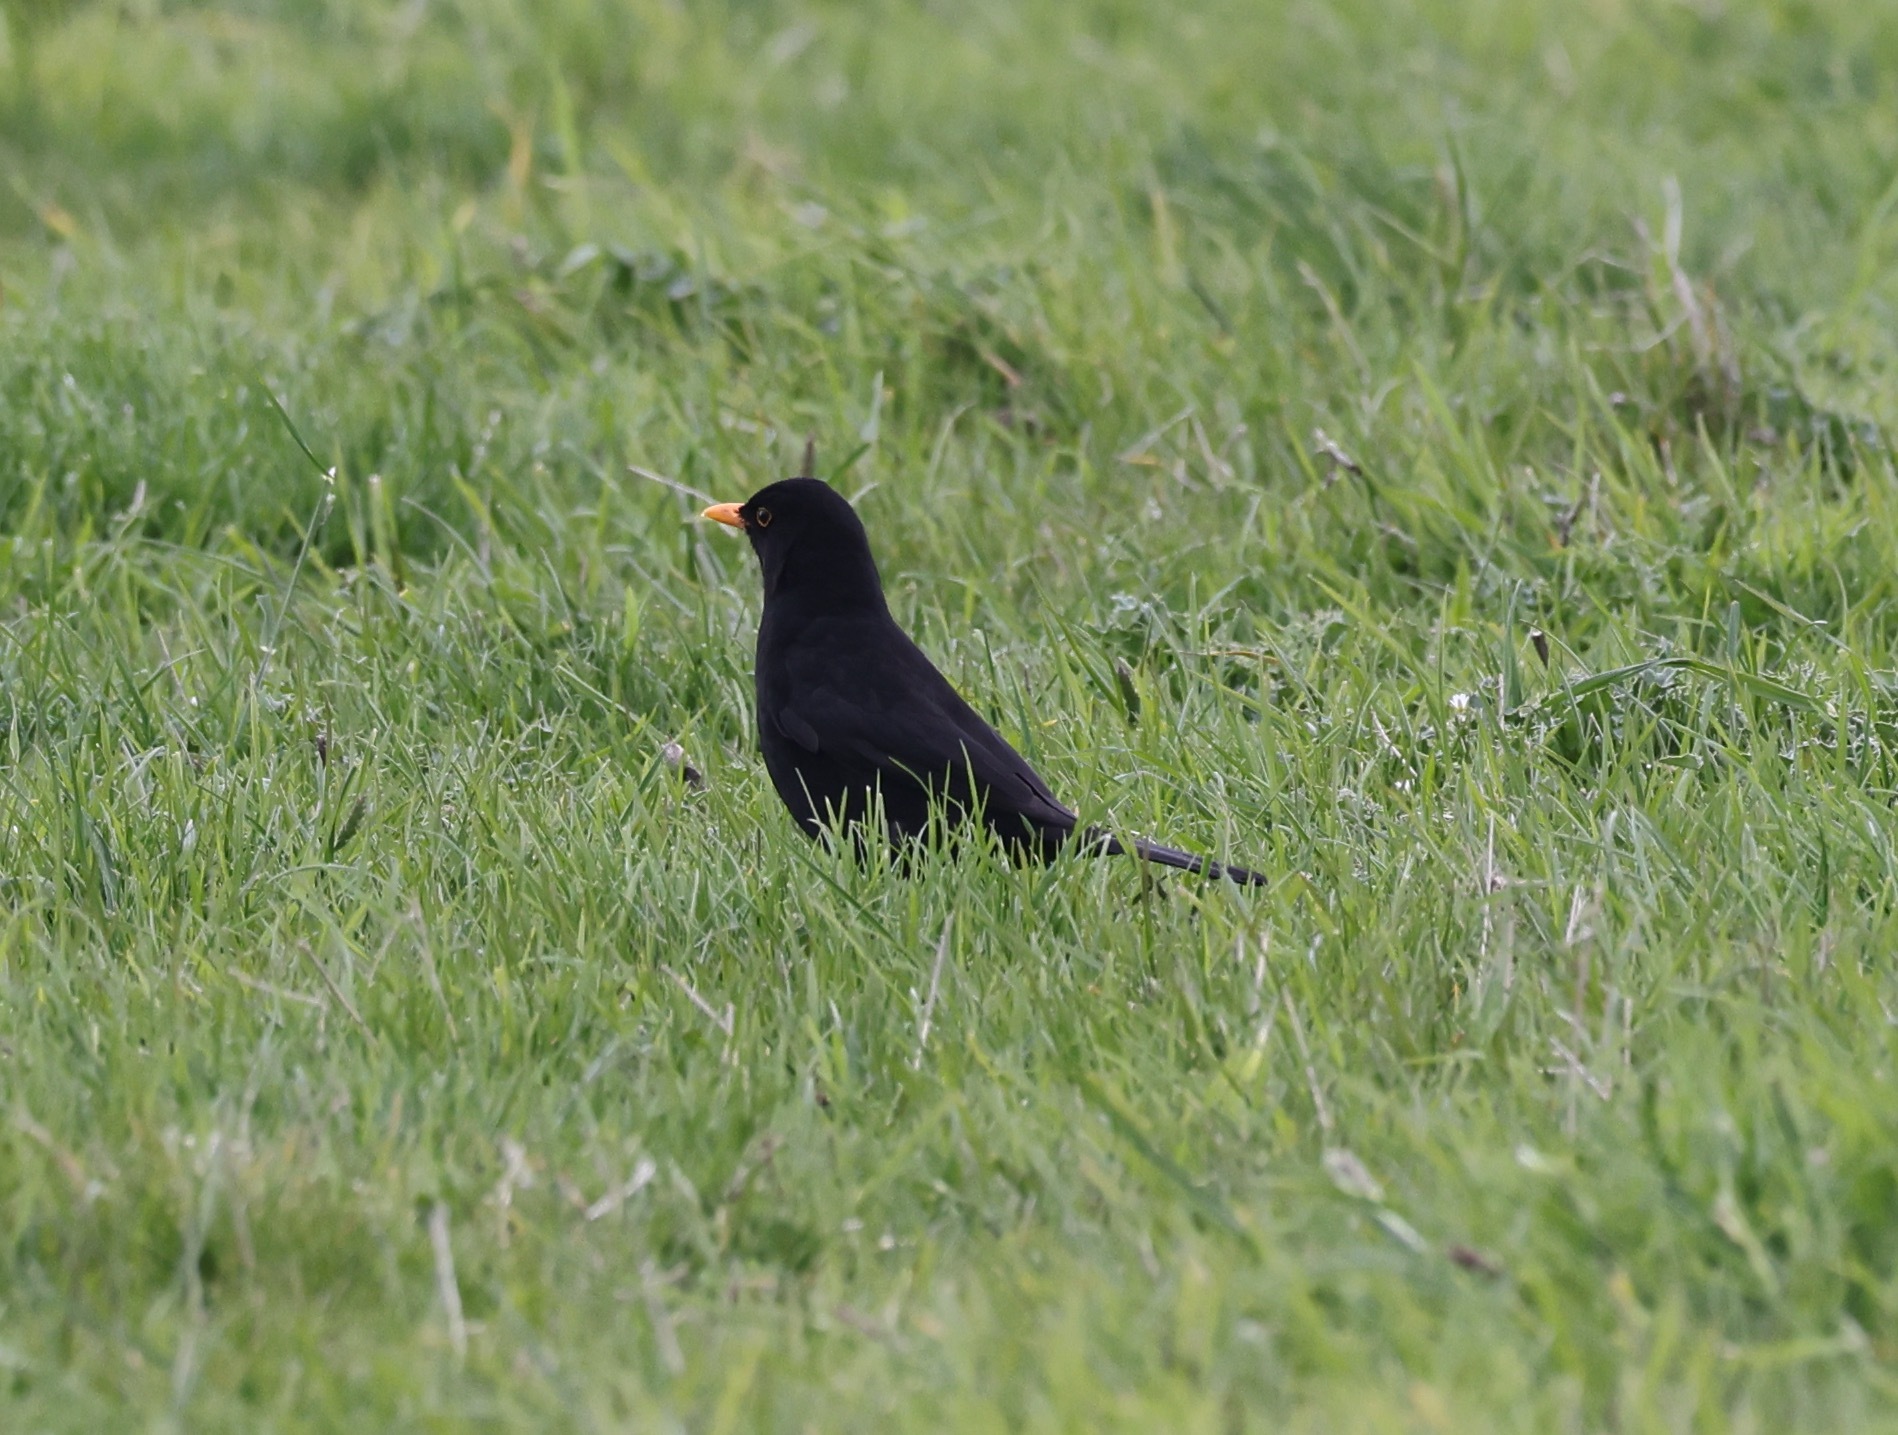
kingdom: Animalia
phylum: Chordata
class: Aves
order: Passeriformes
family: Turdidae
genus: Turdus
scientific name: Turdus merula
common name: Common blackbird
